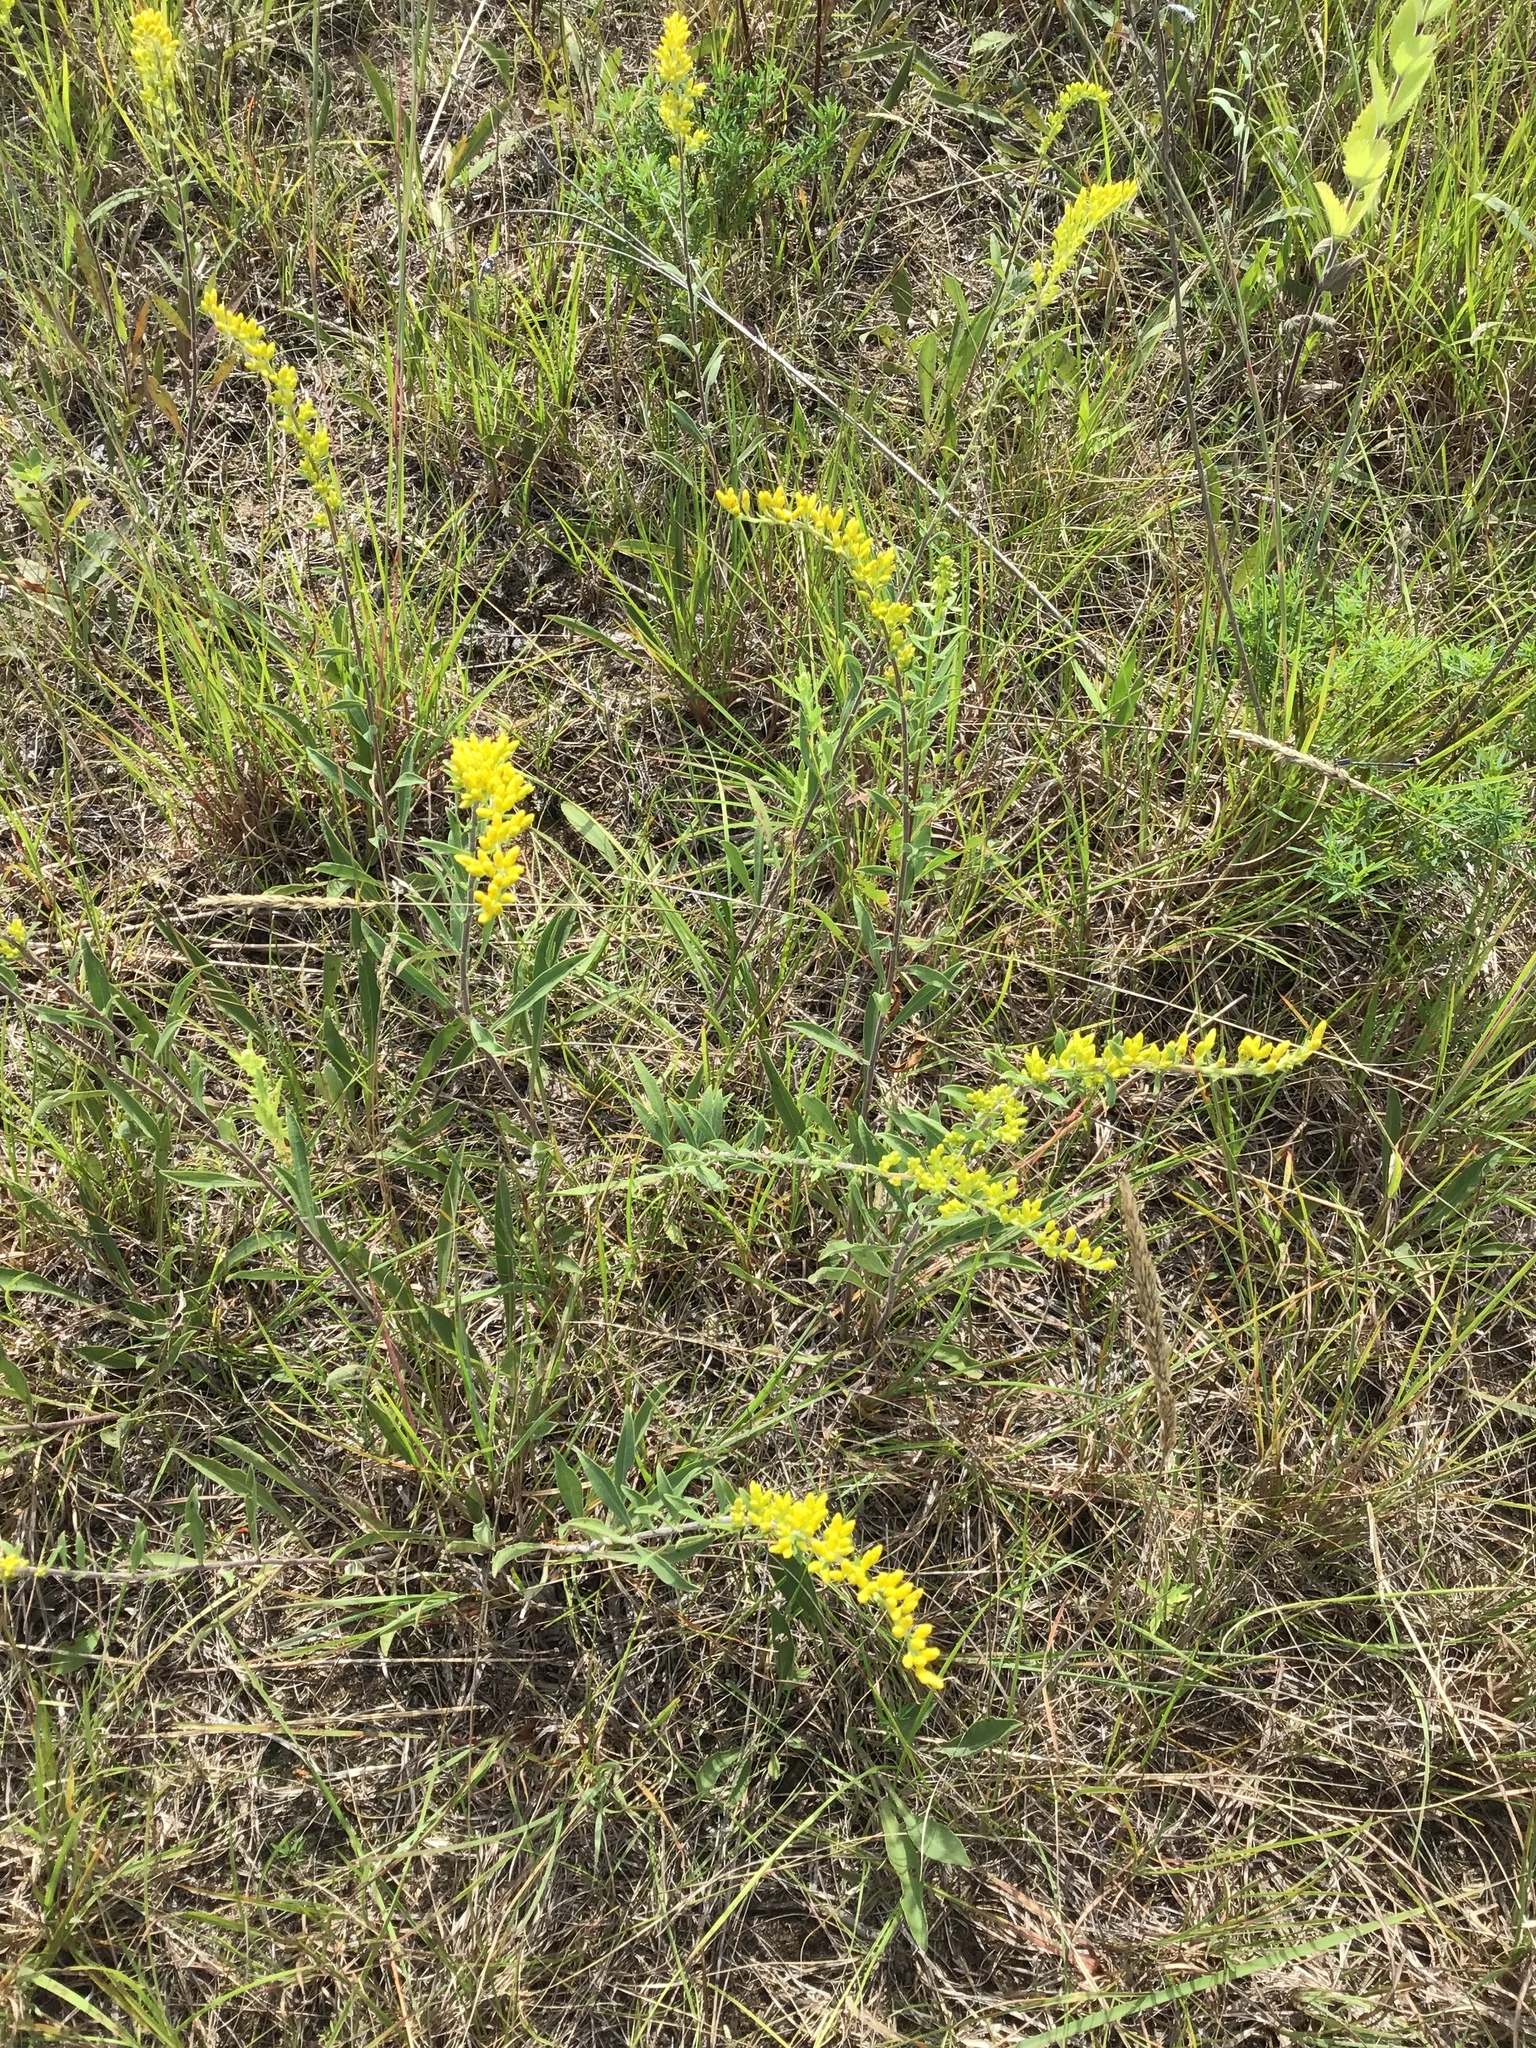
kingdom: Plantae
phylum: Tracheophyta
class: Magnoliopsida
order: Asterales
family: Asteraceae
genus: Solidago
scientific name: Solidago nemoralis
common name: Grey goldenrod
